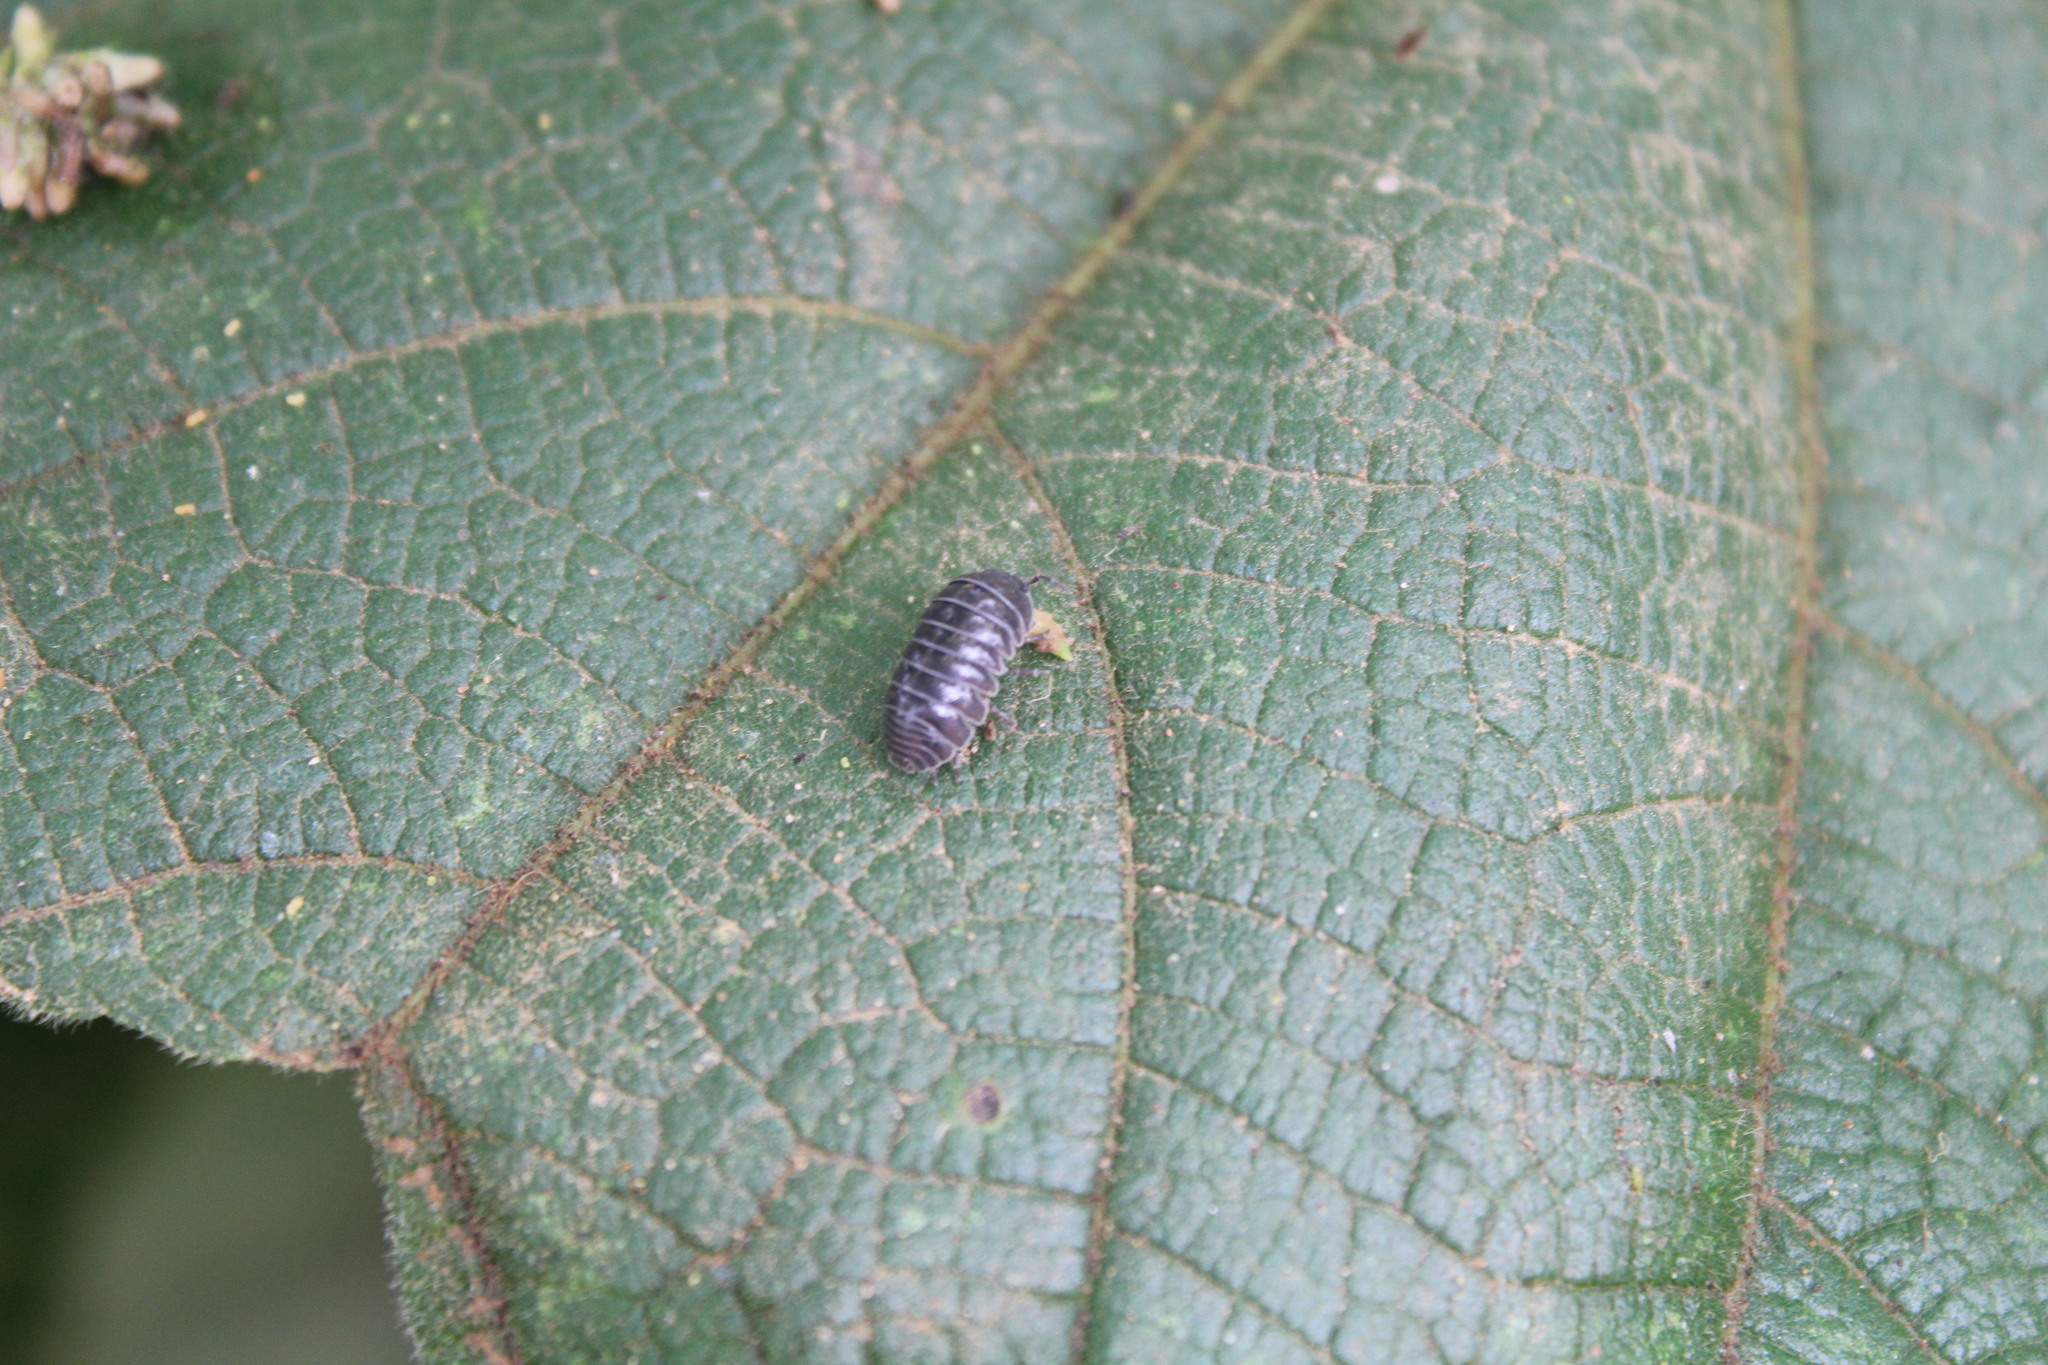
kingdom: Animalia
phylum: Arthropoda
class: Malacostraca
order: Isopoda
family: Armadillidiidae
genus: Armadillidium
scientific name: Armadillidium vulgare
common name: Common pill woodlouse
